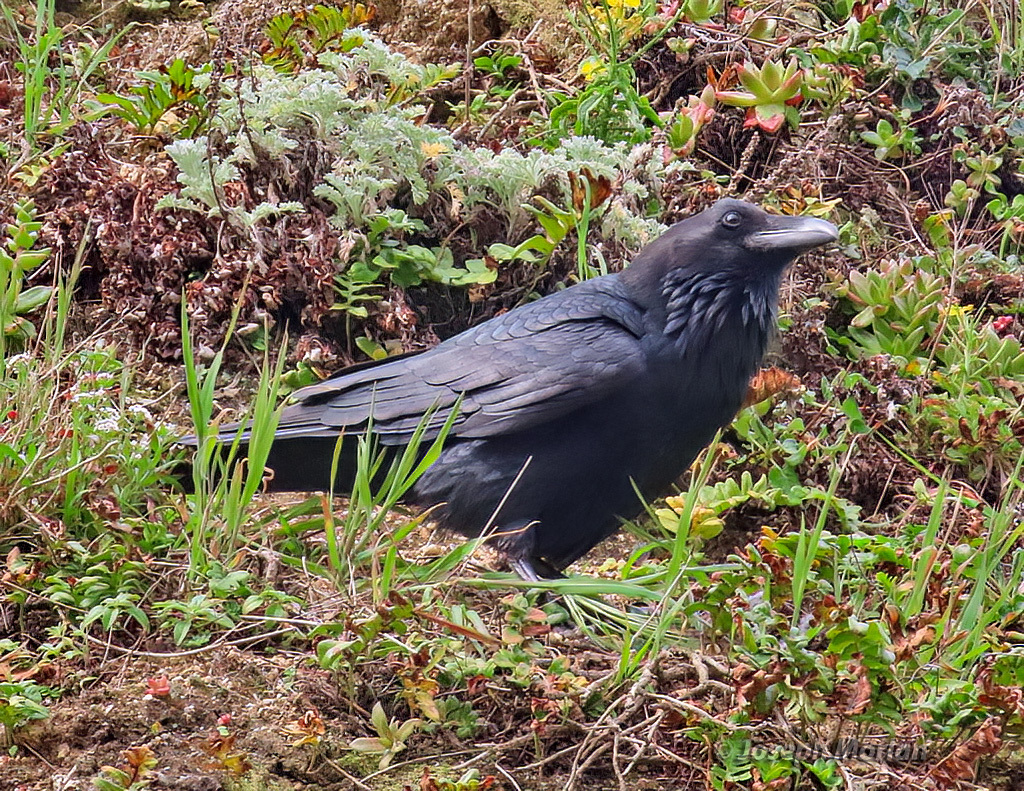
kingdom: Animalia
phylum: Chordata
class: Aves
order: Passeriformes
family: Corvidae
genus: Corvus
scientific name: Corvus corax
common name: Common raven
